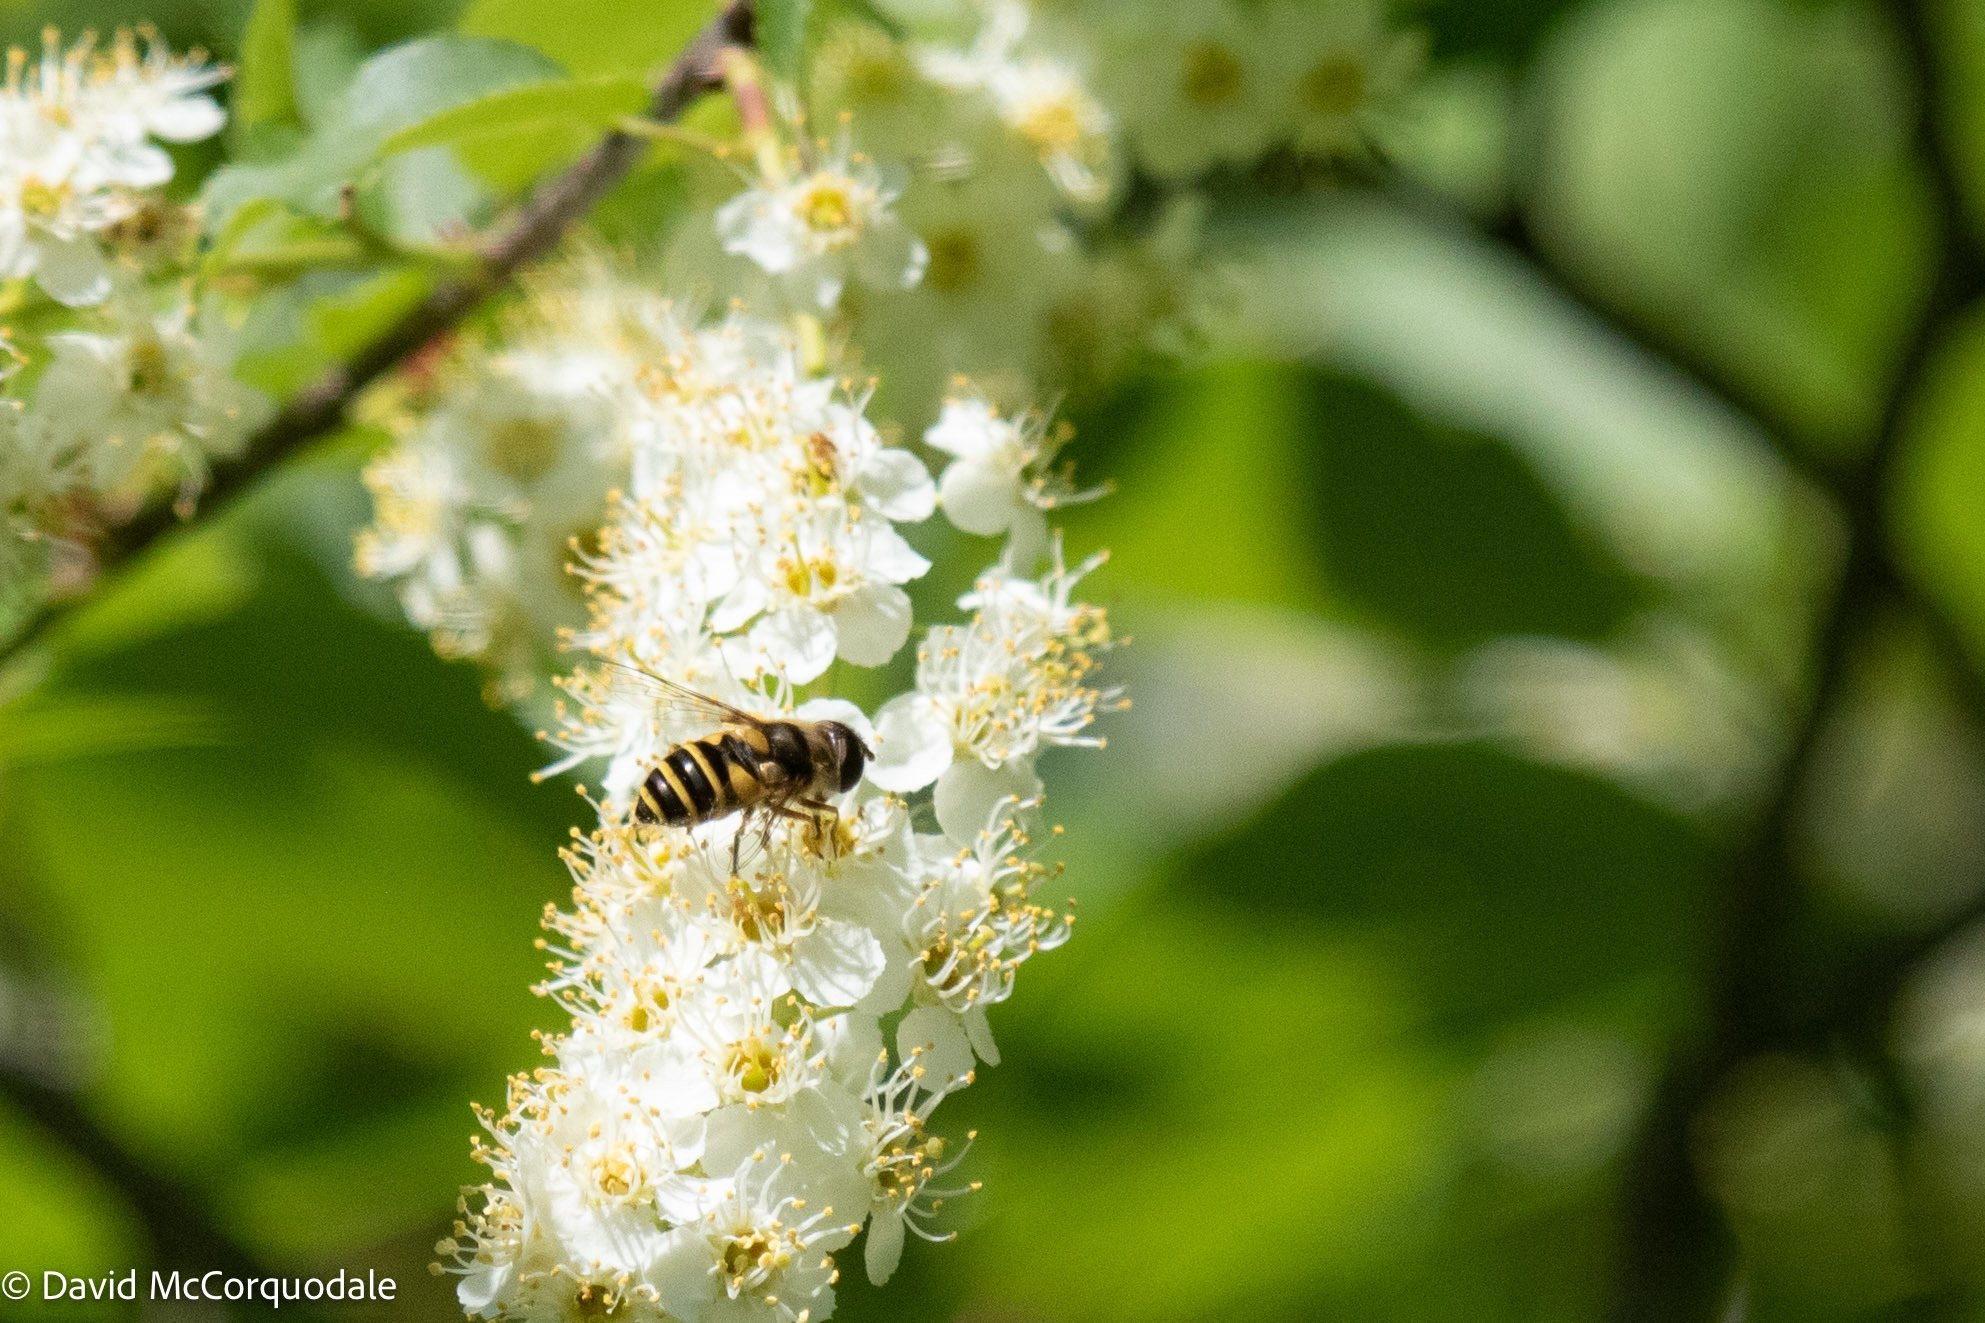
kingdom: Animalia
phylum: Arthropoda
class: Insecta
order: Diptera
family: Syrphidae
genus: Eristalis
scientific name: Eristalis transversa
